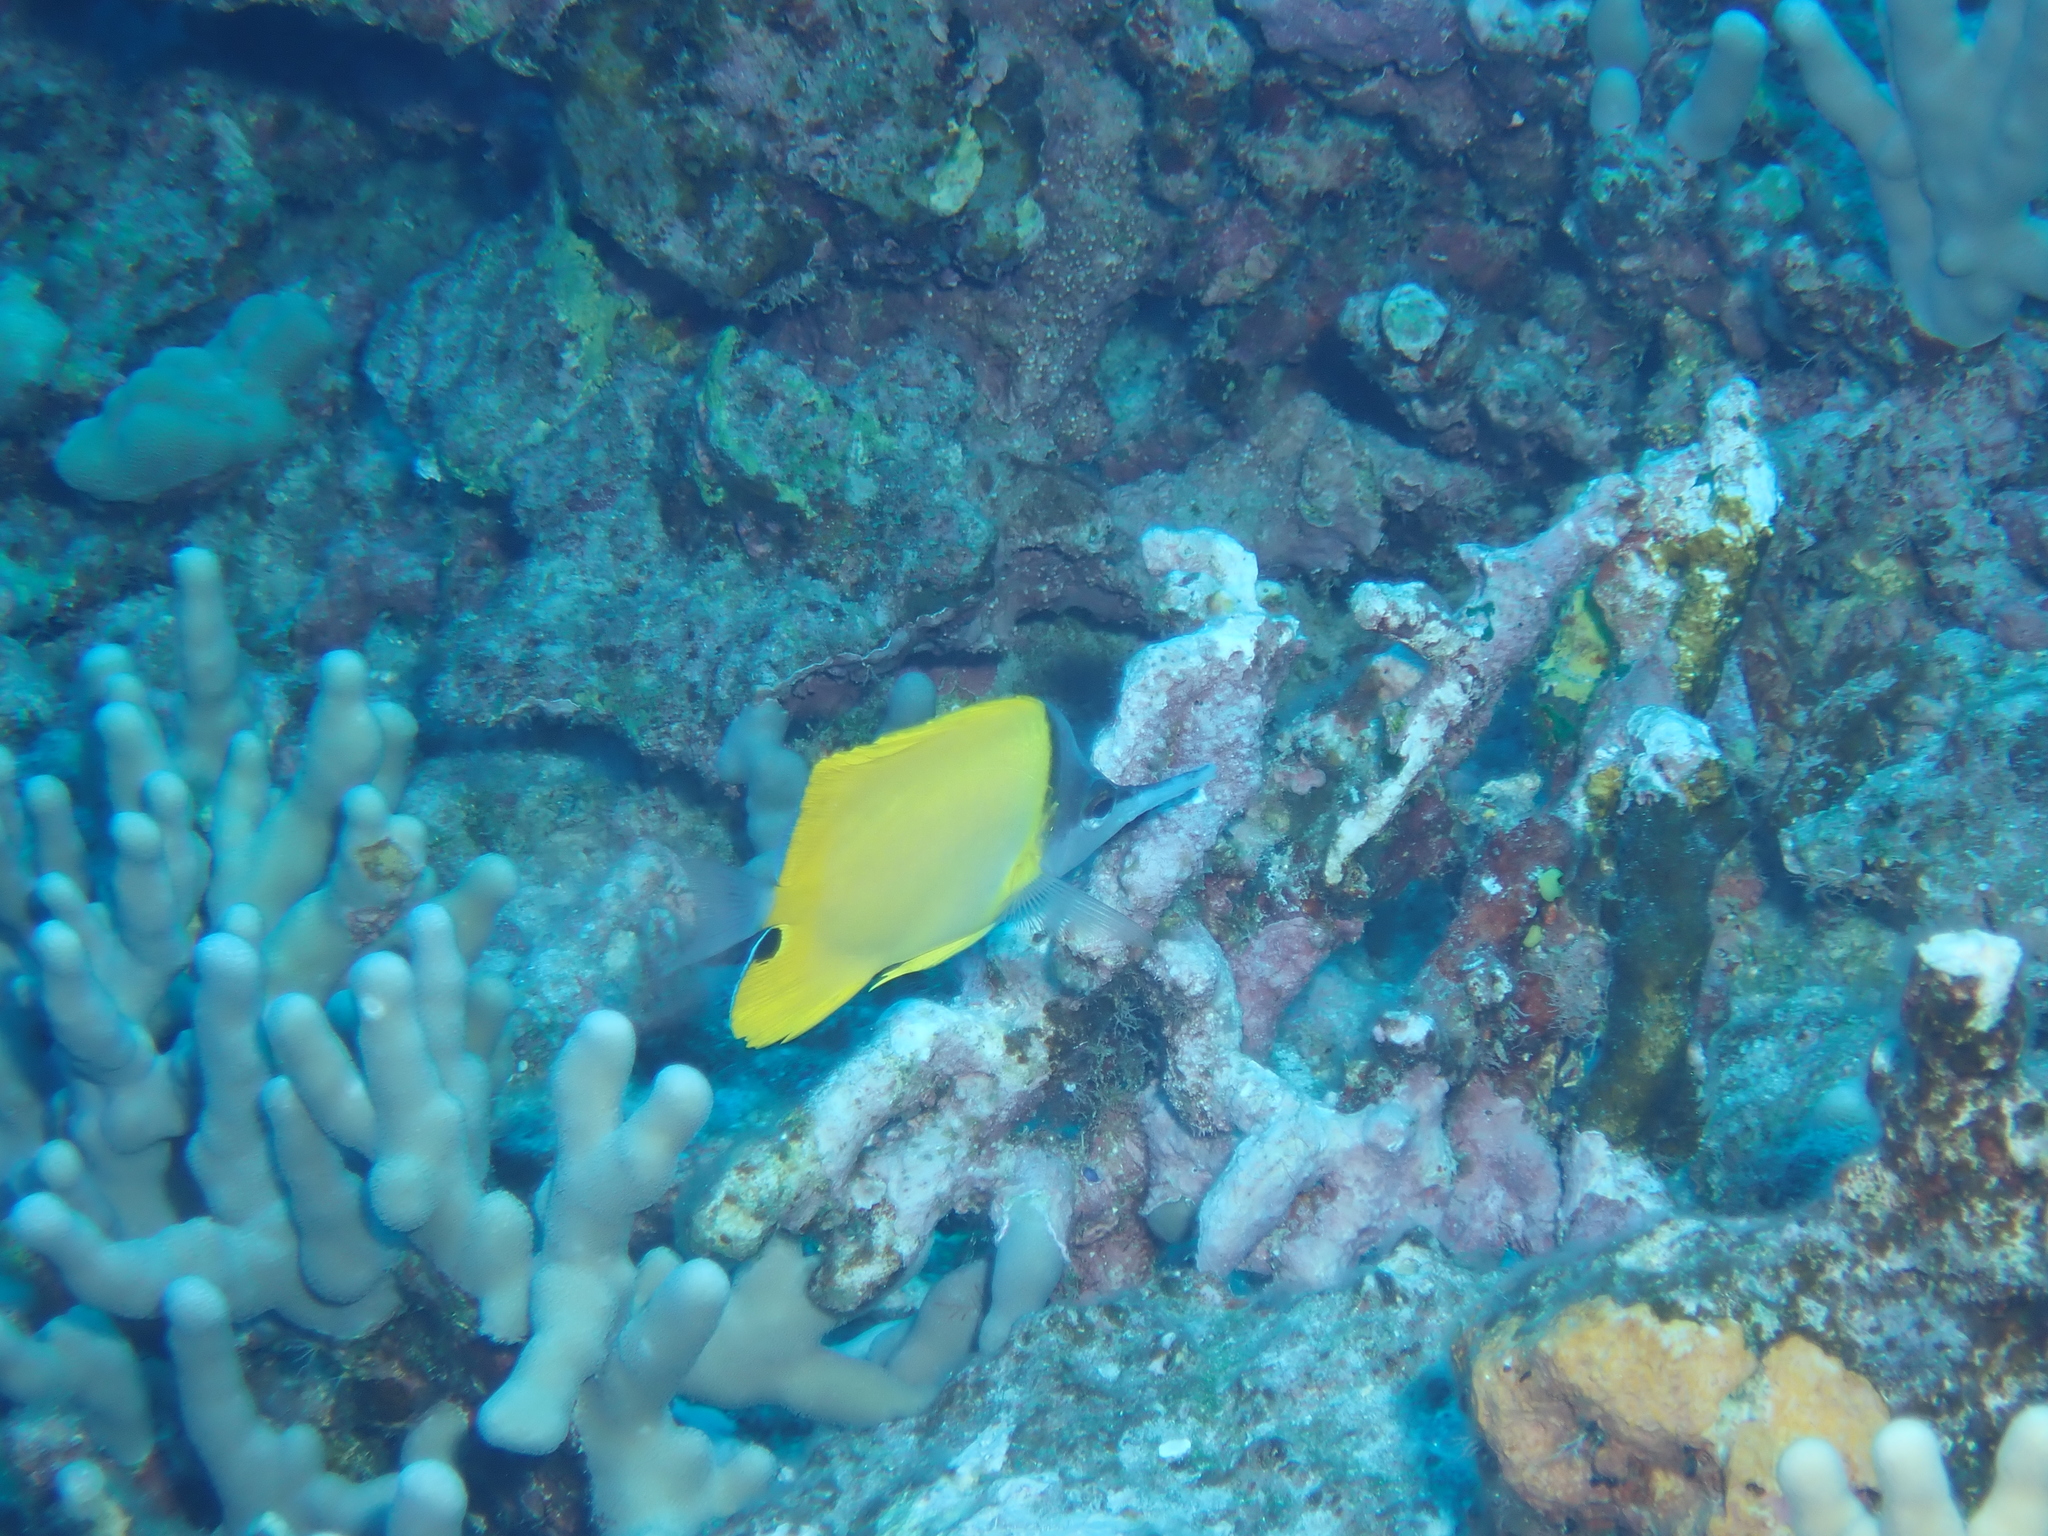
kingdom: Animalia
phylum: Chordata
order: Perciformes
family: Chaetodontidae
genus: Forcipiger
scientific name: Forcipiger flavissimus
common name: Forcepsfish
